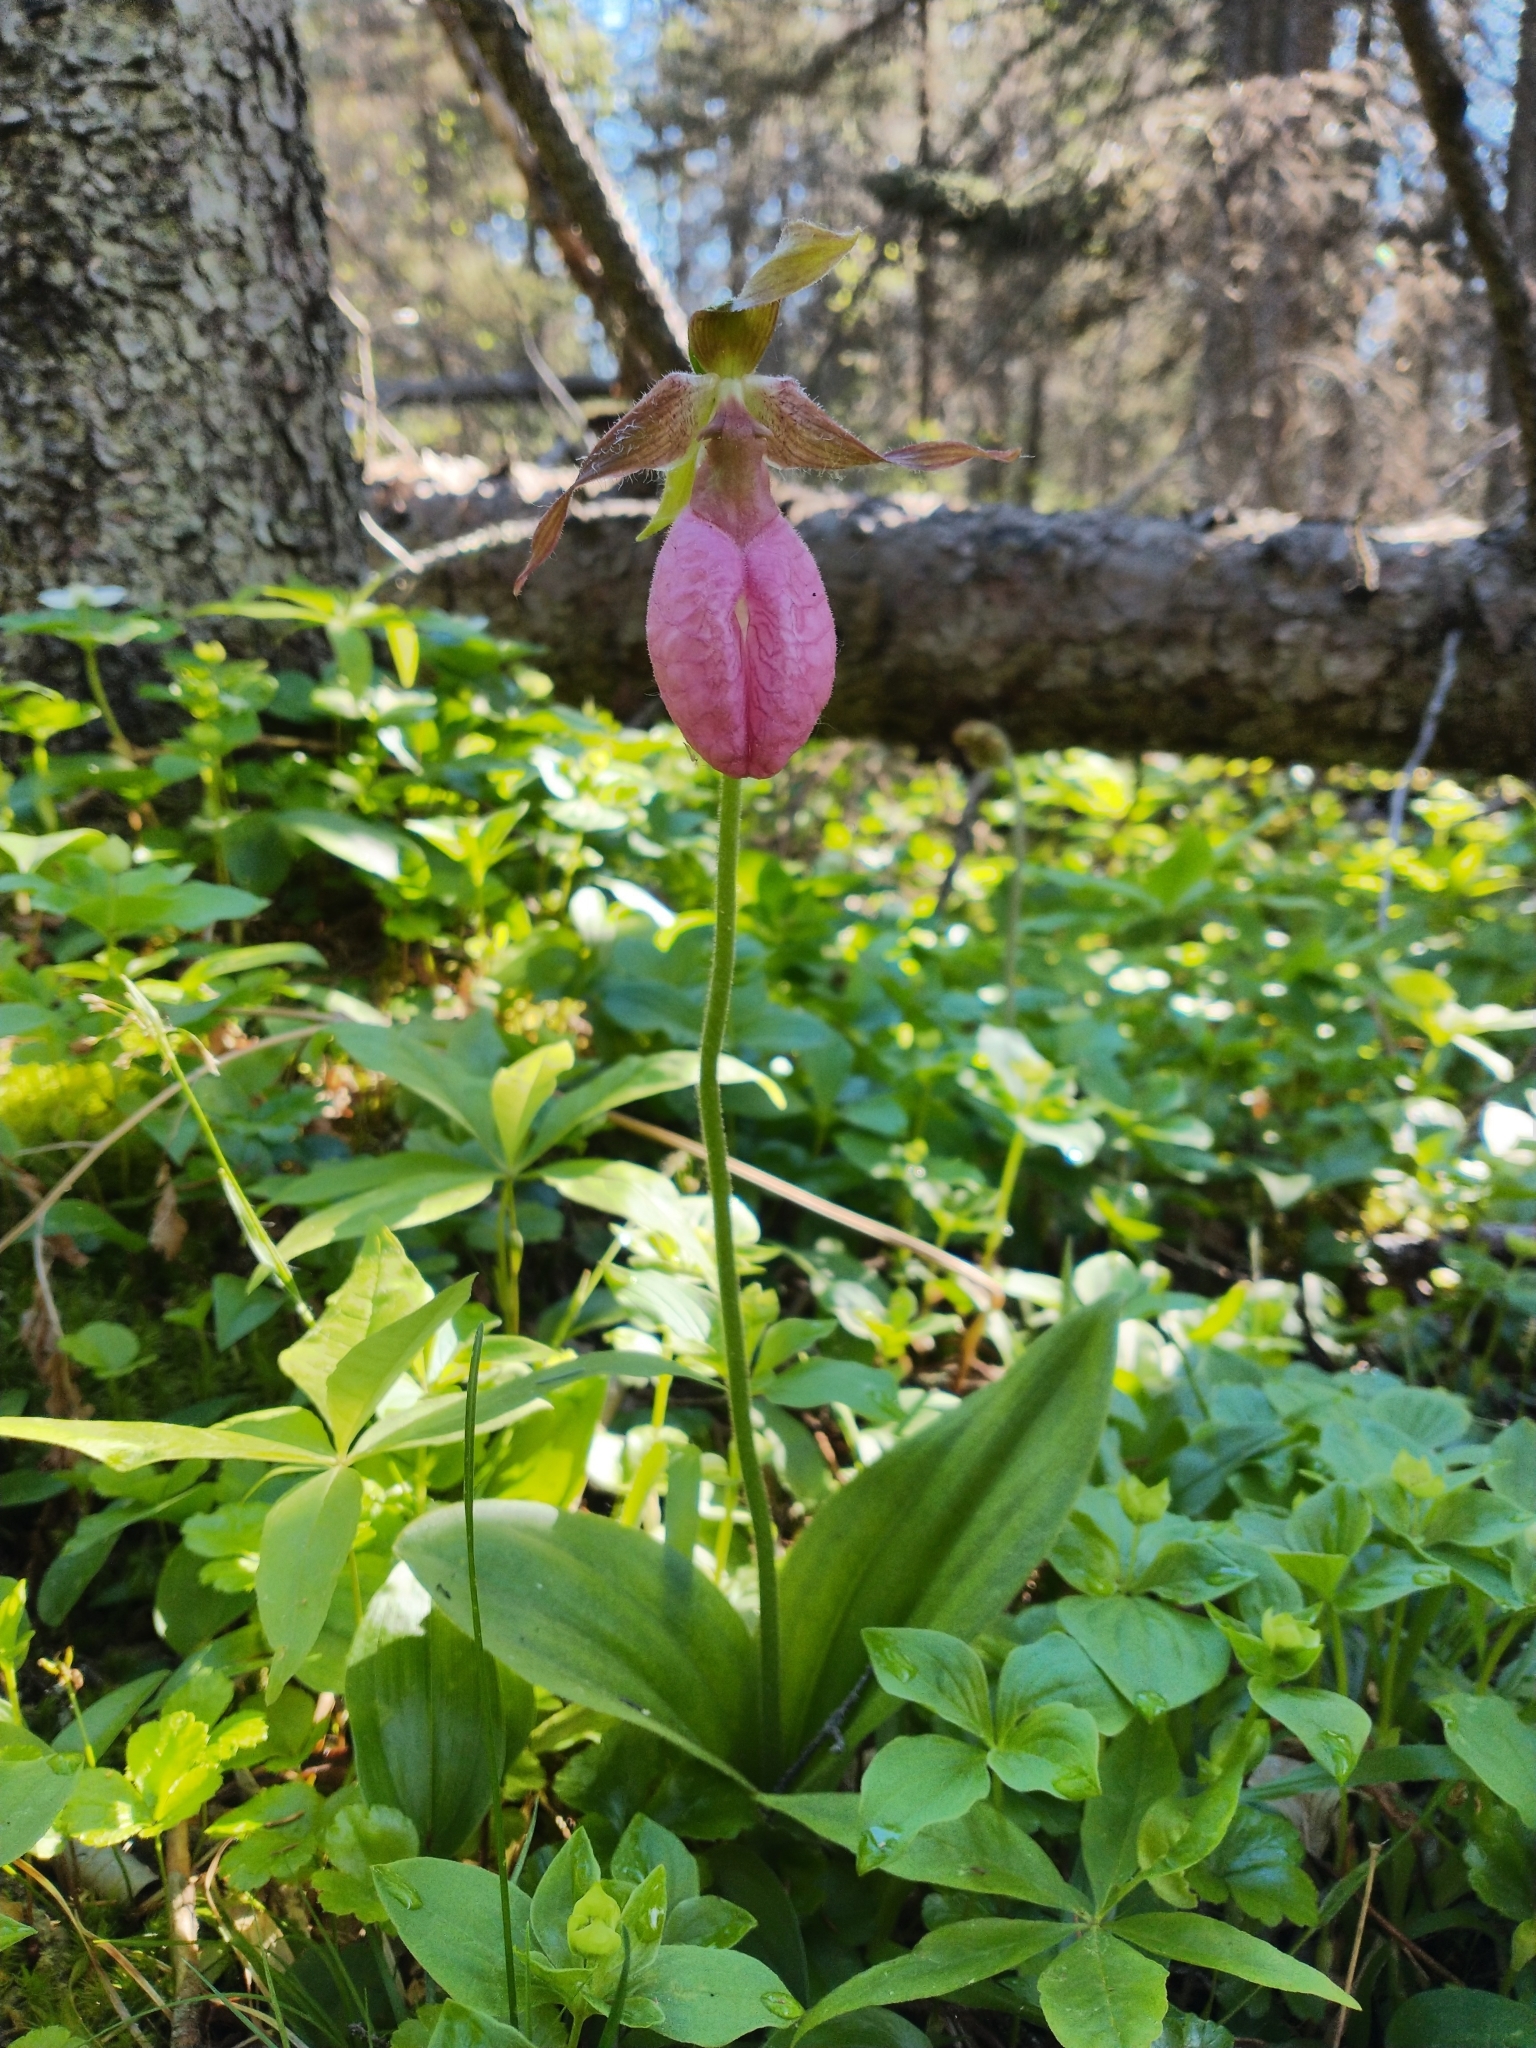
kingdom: Plantae
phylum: Tracheophyta
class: Liliopsida
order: Asparagales
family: Orchidaceae
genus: Cypripedium
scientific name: Cypripedium acaule
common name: Pink lady's-slipper
